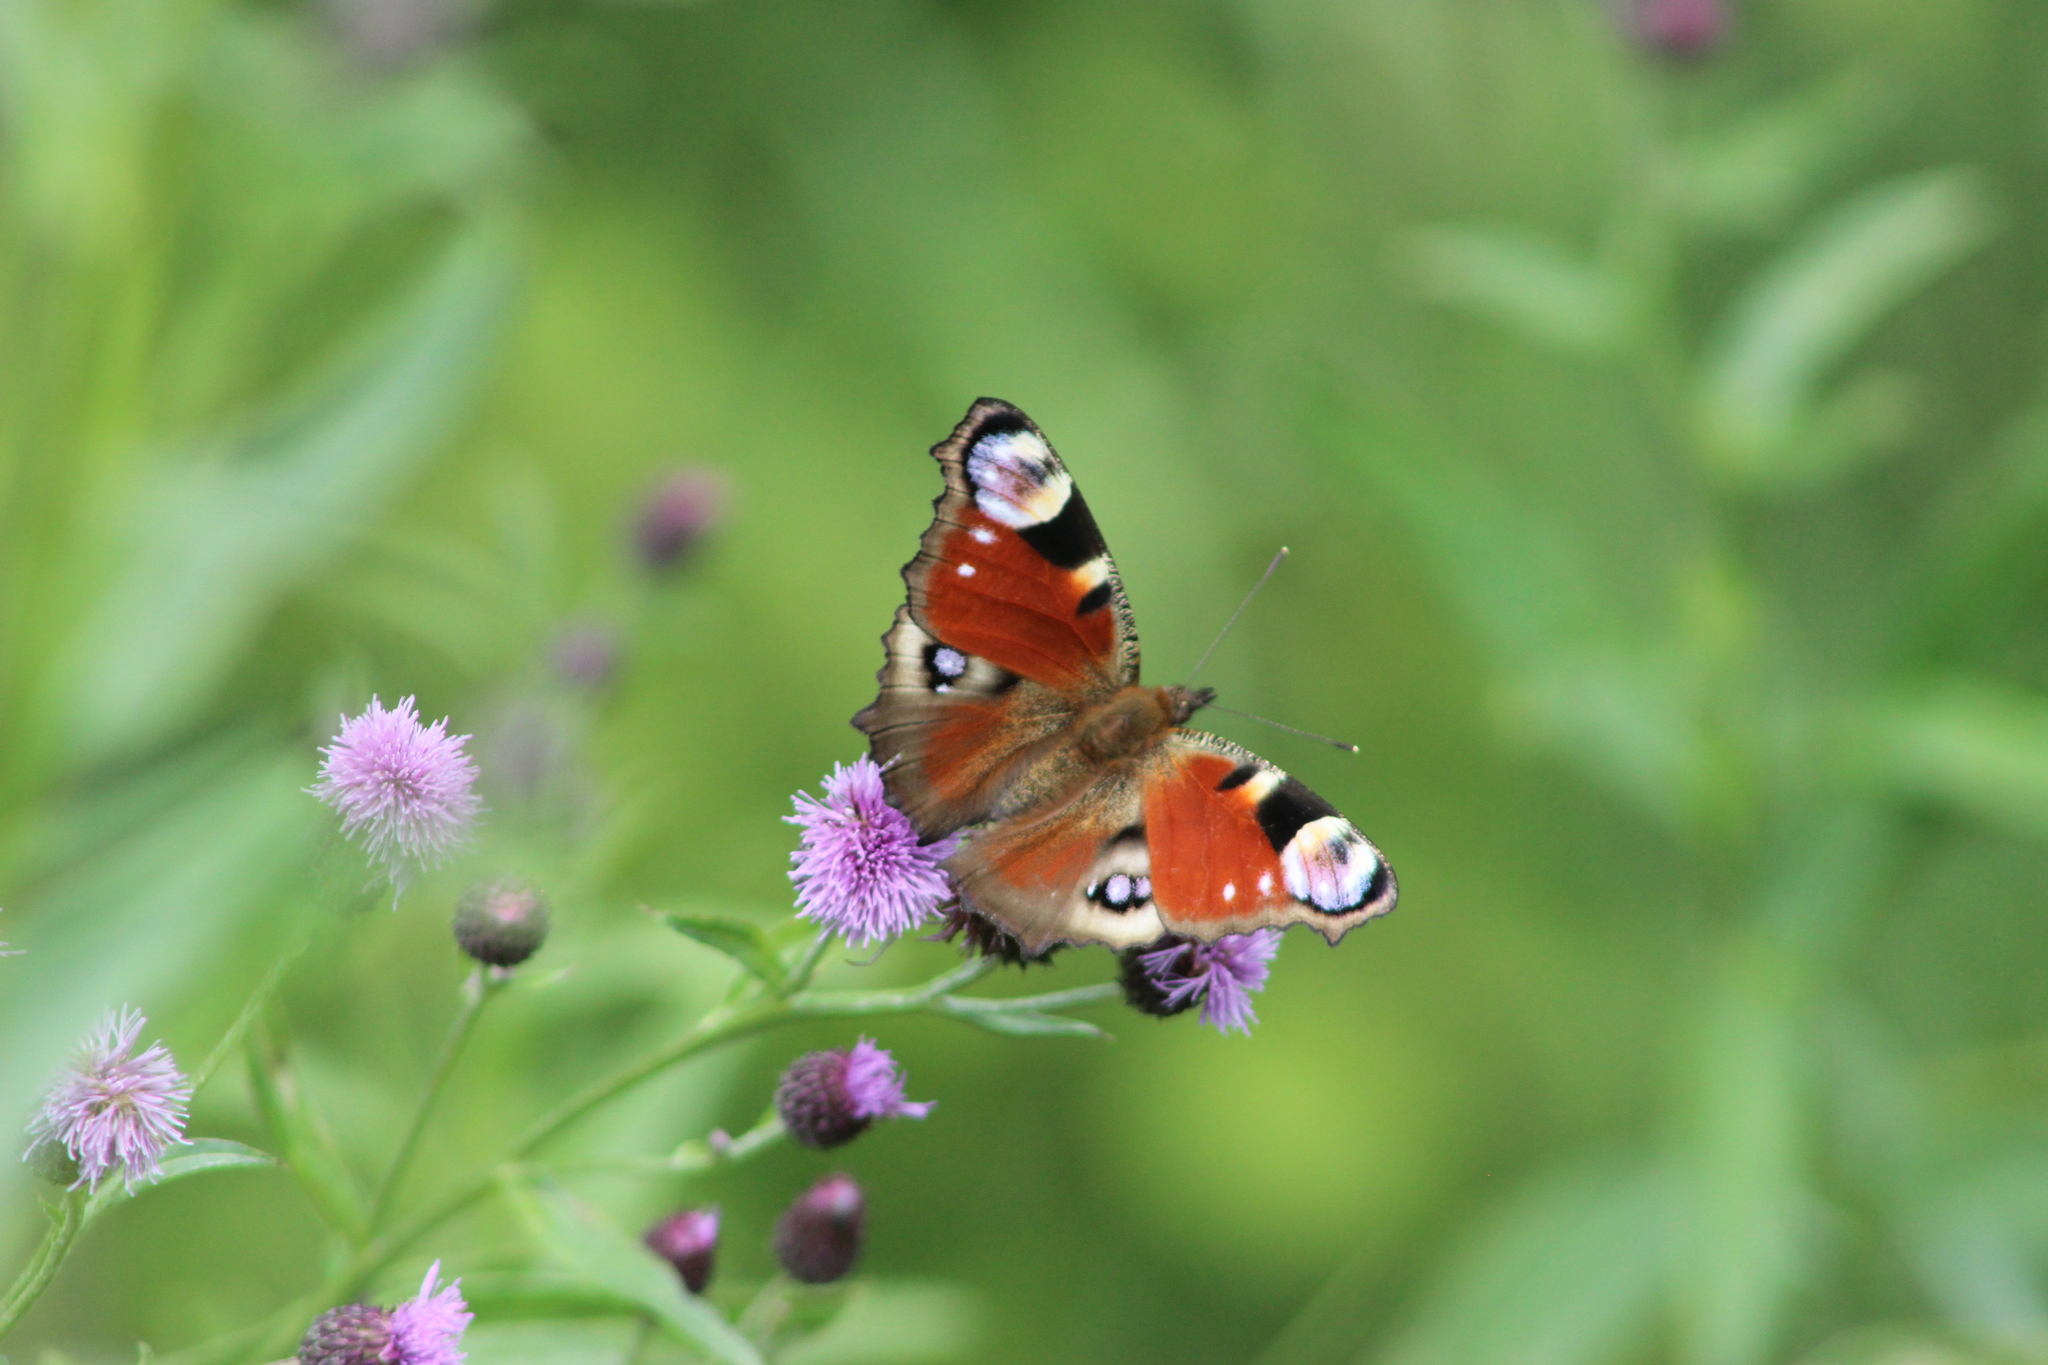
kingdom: Animalia
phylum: Arthropoda
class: Insecta
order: Lepidoptera
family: Nymphalidae
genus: Aglais
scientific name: Aglais io
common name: Peacock
